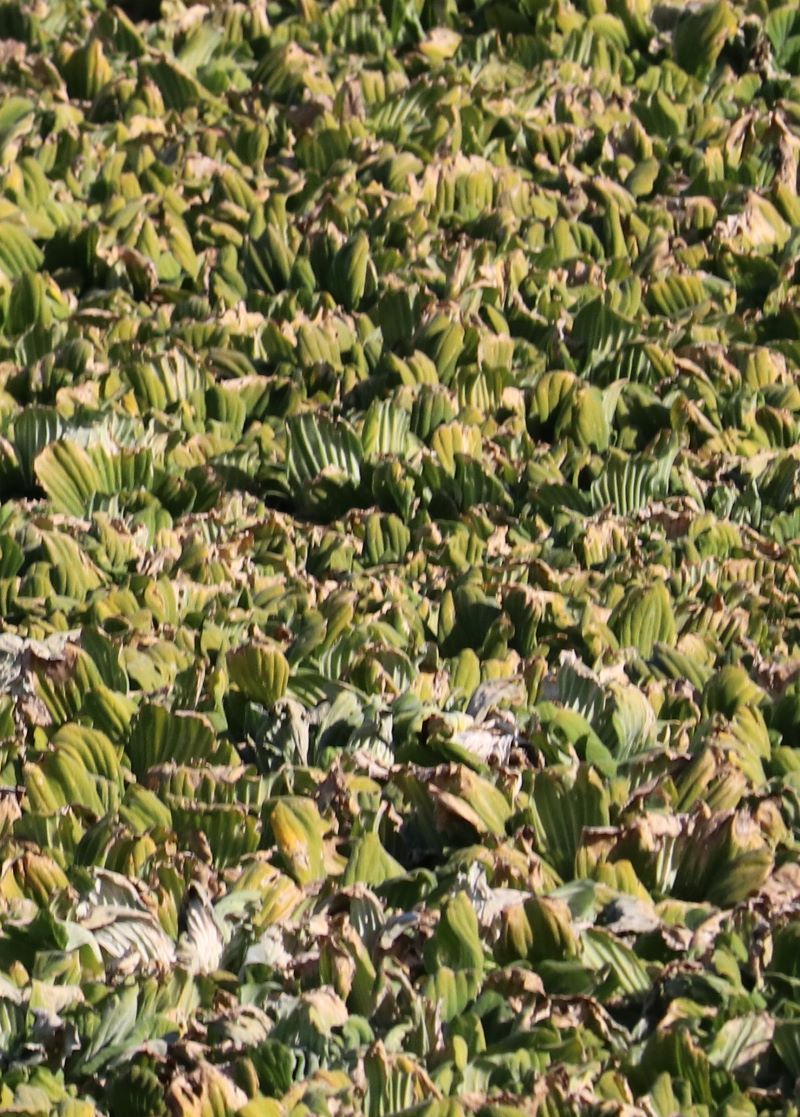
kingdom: Plantae
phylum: Tracheophyta
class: Liliopsida
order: Alismatales
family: Araceae
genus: Pistia
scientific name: Pistia stratiotes
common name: Water lettuce
